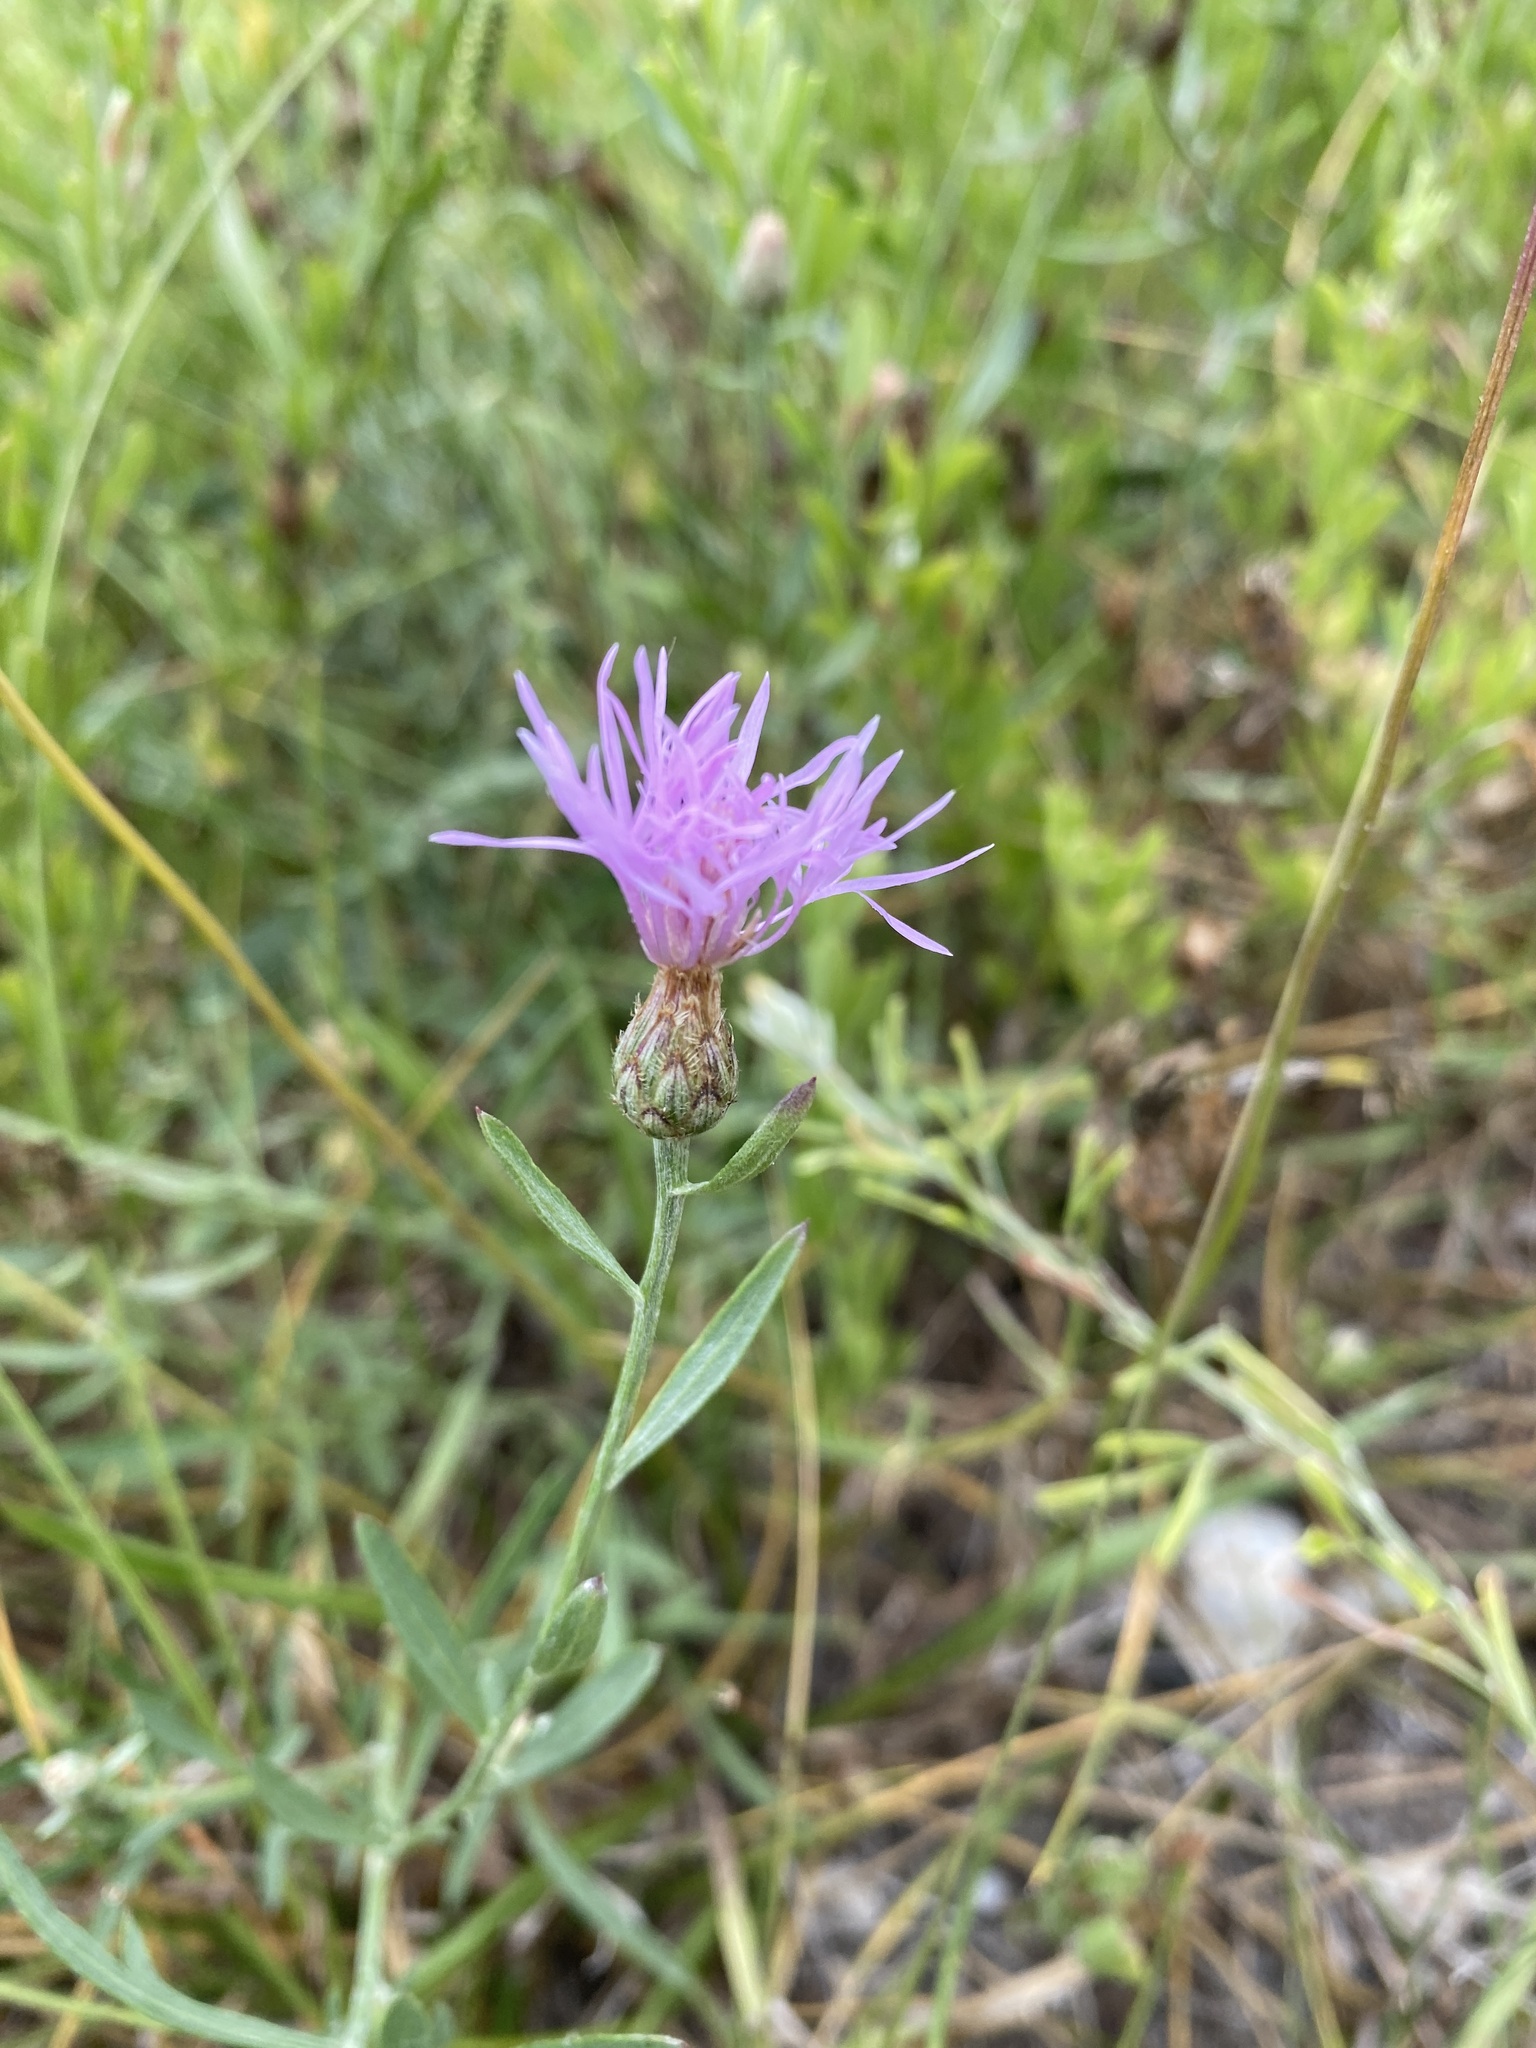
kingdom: Plantae
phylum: Tracheophyta
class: Magnoliopsida
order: Asterales
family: Asteraceae
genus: Centaurea
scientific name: Centaurea stoebe
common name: Spotted knapweed
